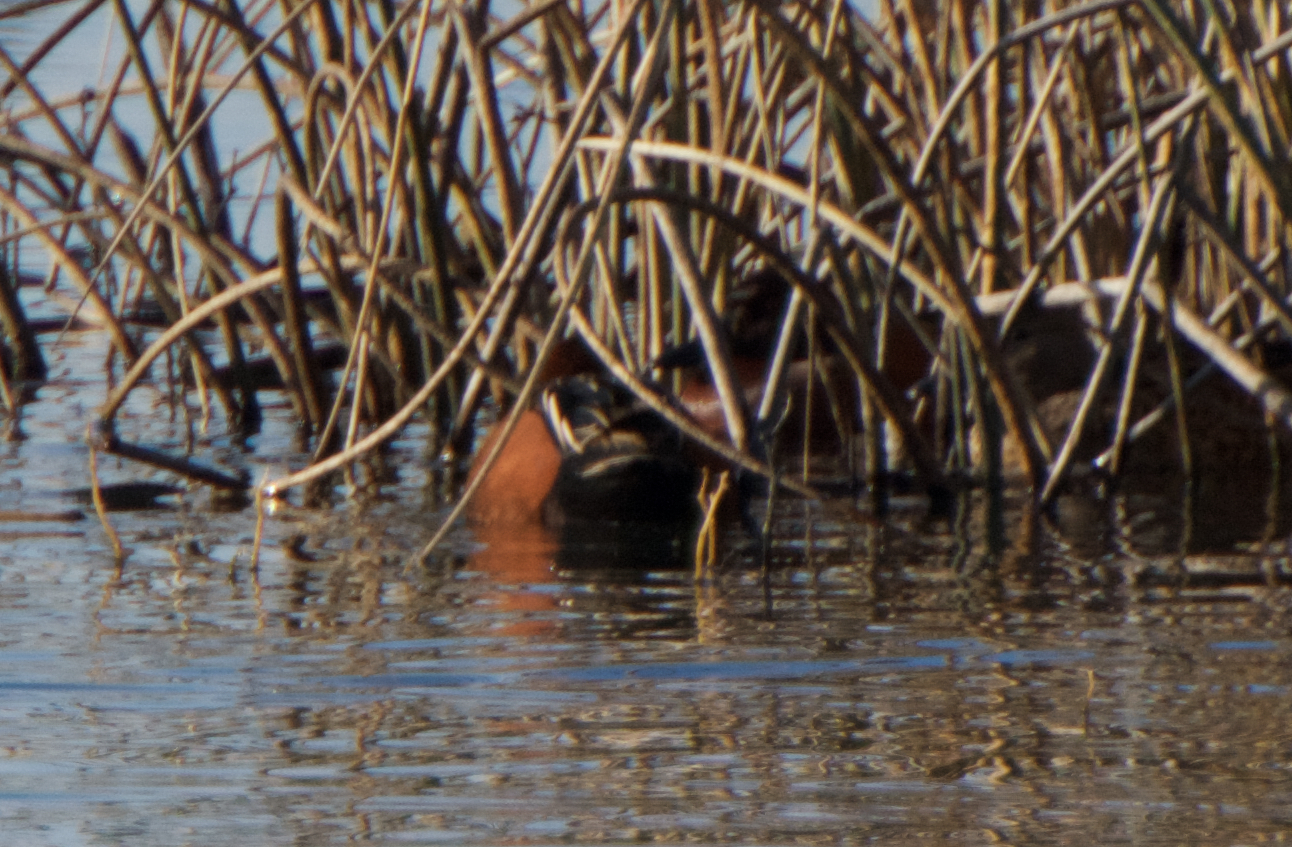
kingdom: Animalia
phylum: Chordata
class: Aves
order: Anseriformes
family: Anatidae
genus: Spatula
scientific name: Spatula cyanoptera
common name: Cinnamon teal
